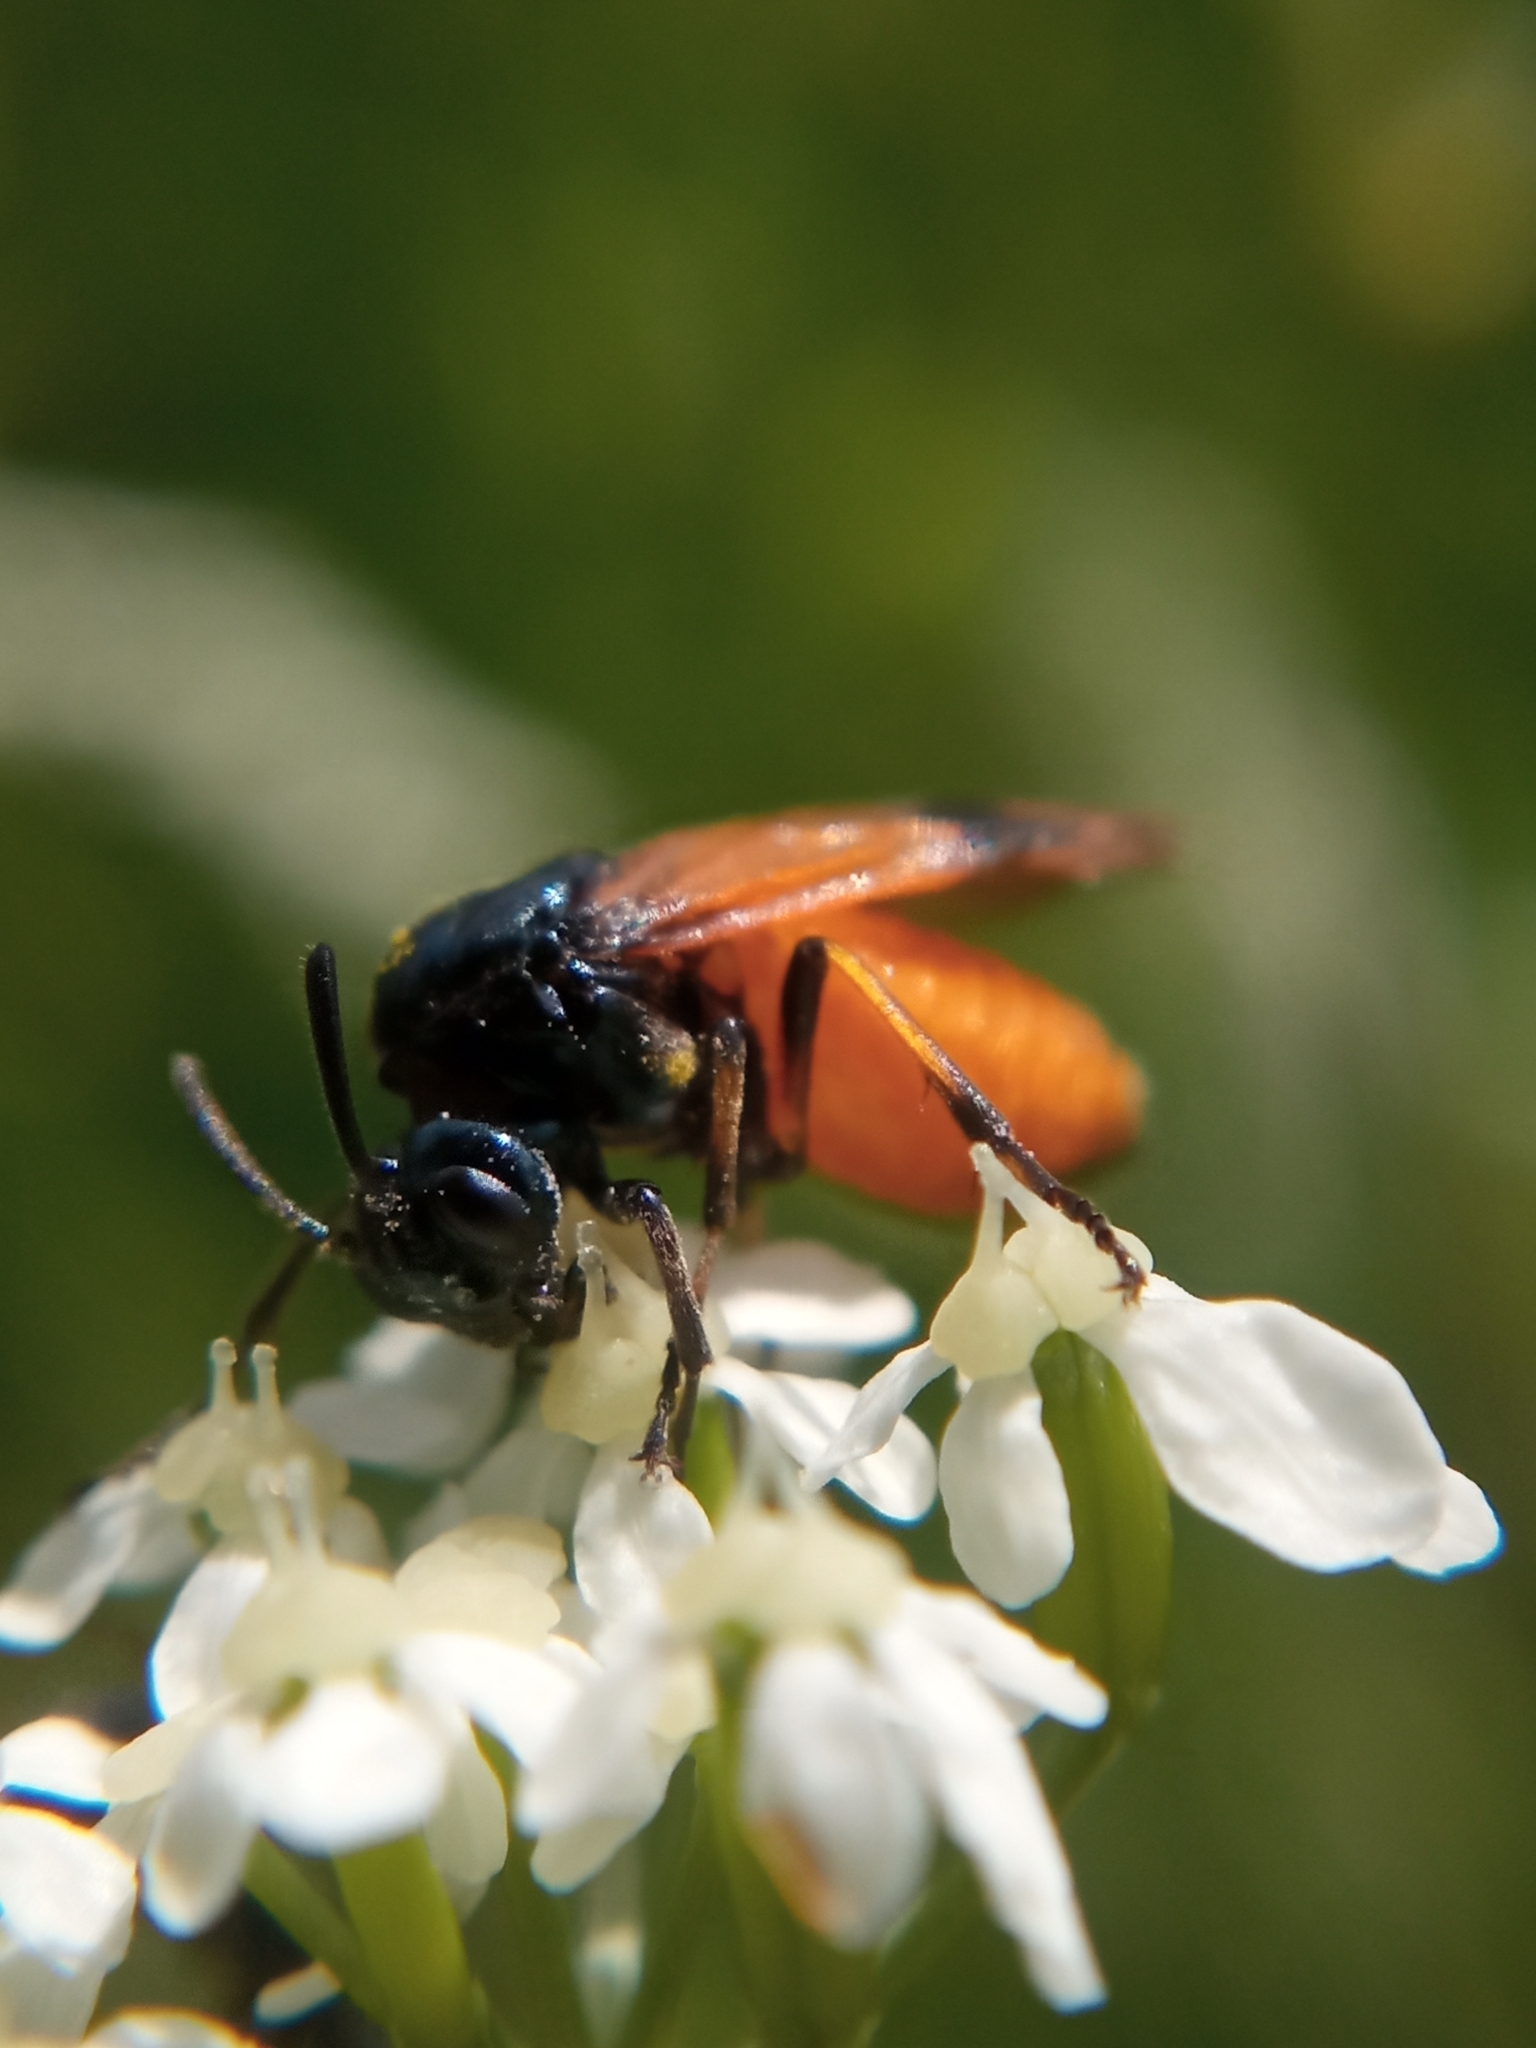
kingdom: Animalia
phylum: Arthropoda
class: Insecta
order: Hymenoptera
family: Argidae
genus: Arge
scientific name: Arge cyanocrocea
